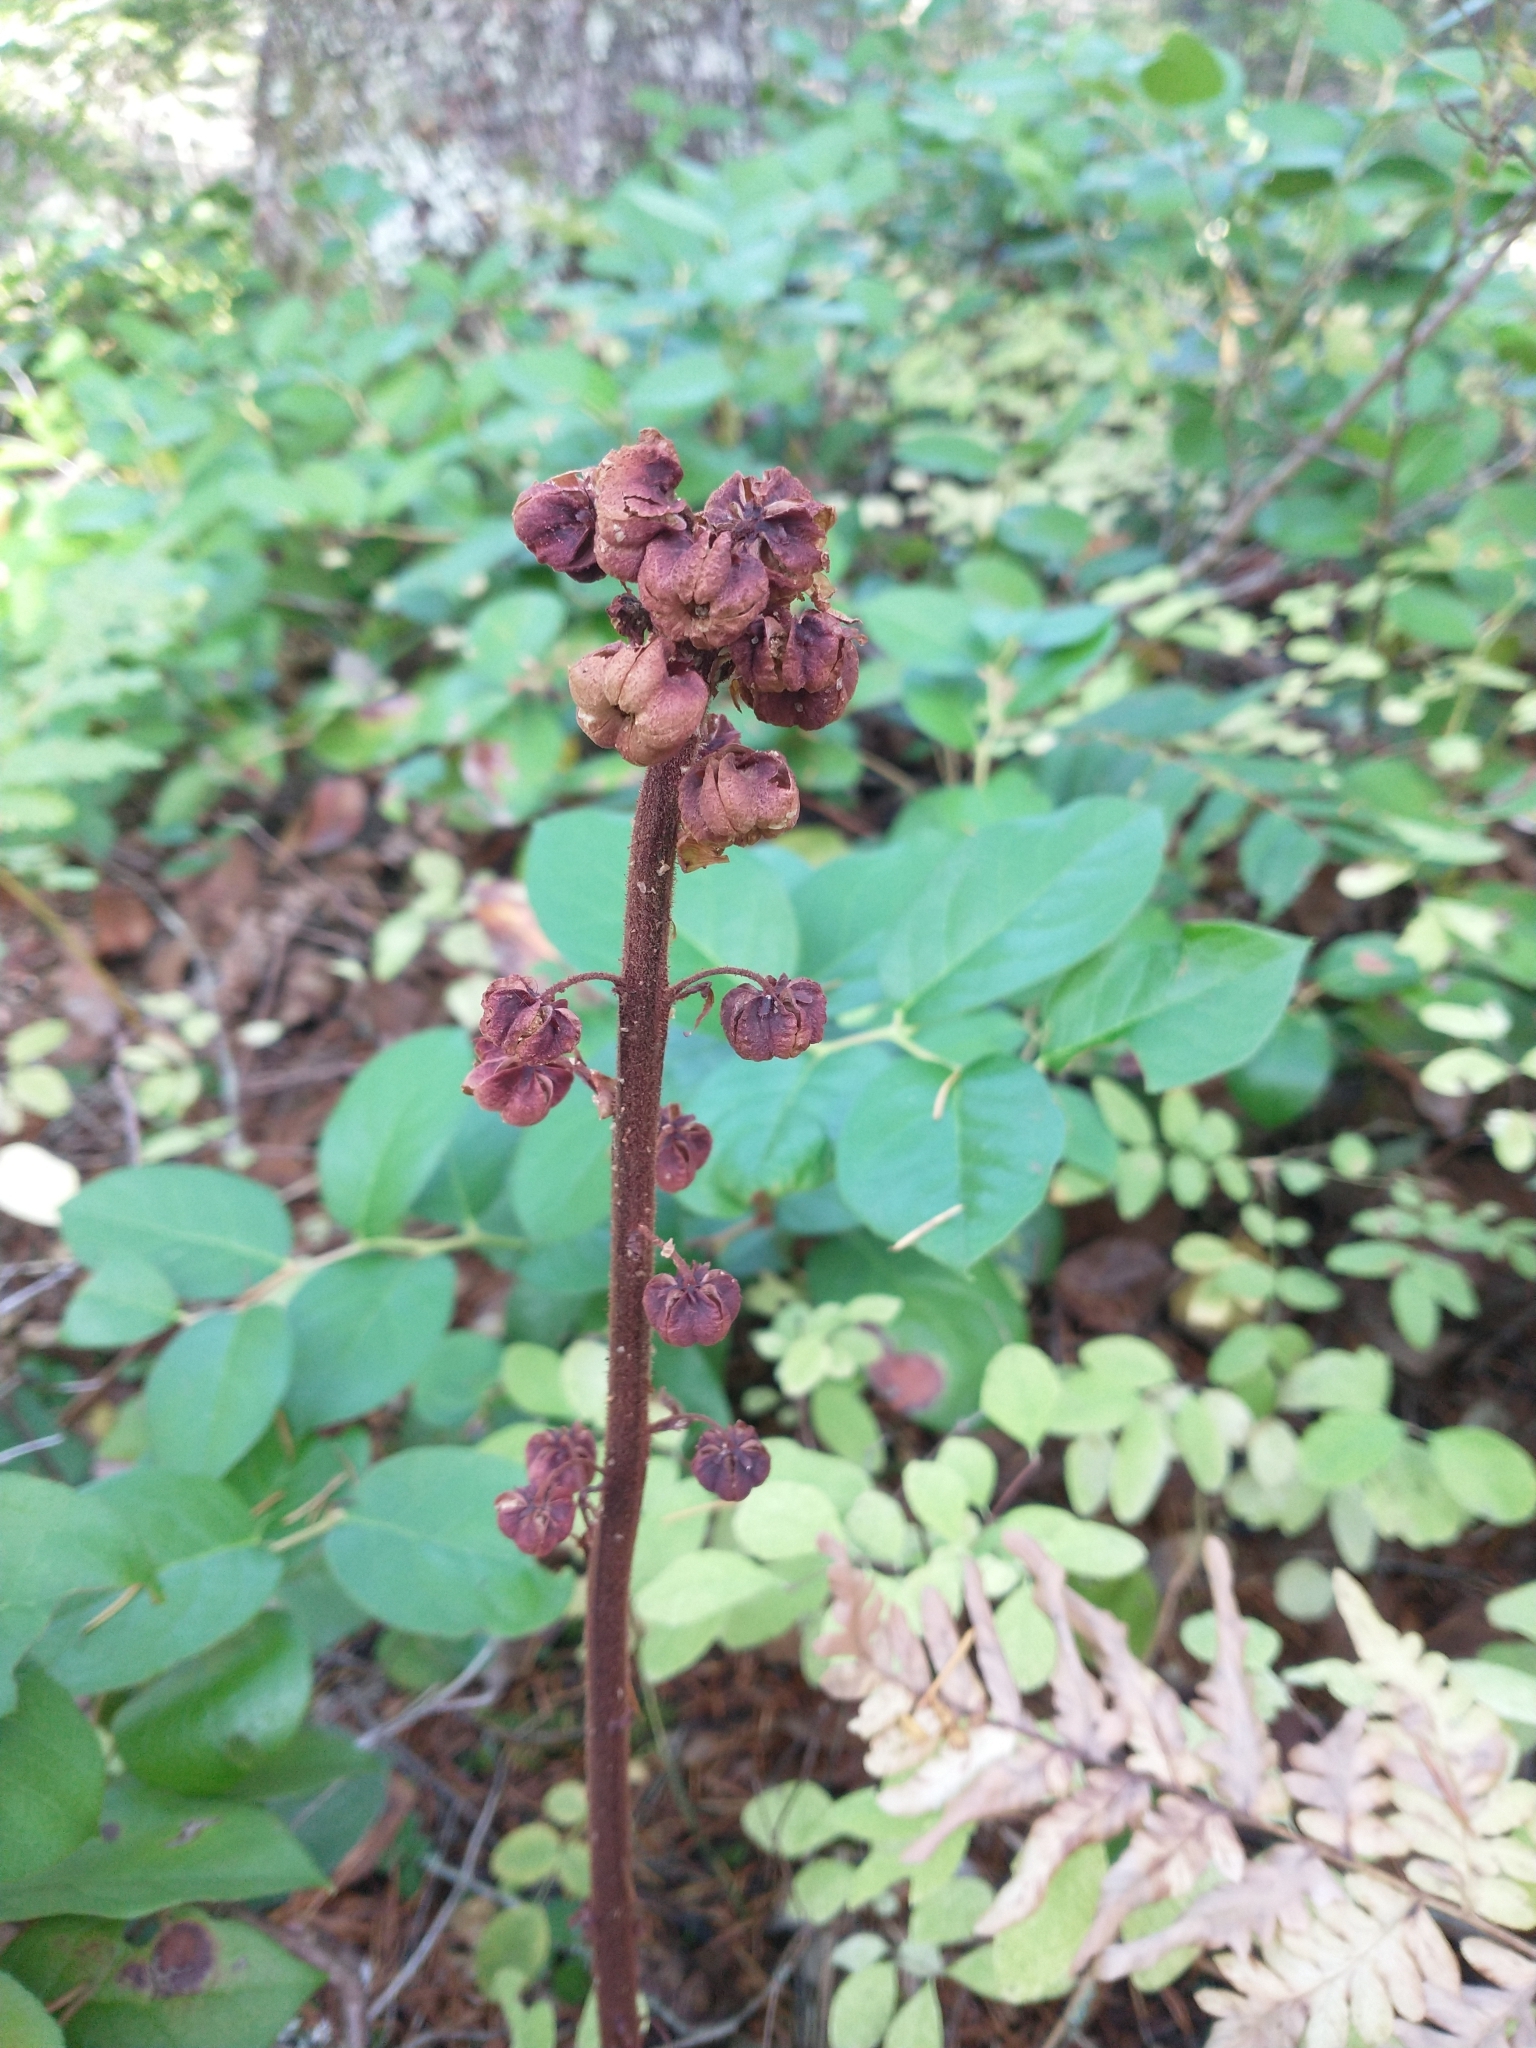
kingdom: Plantae
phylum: Tracheophyta
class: Magnoliopsida
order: Ericales
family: Ericaceae
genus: Pterospora
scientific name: Pterospora andromedea
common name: Giant bird's-nest
